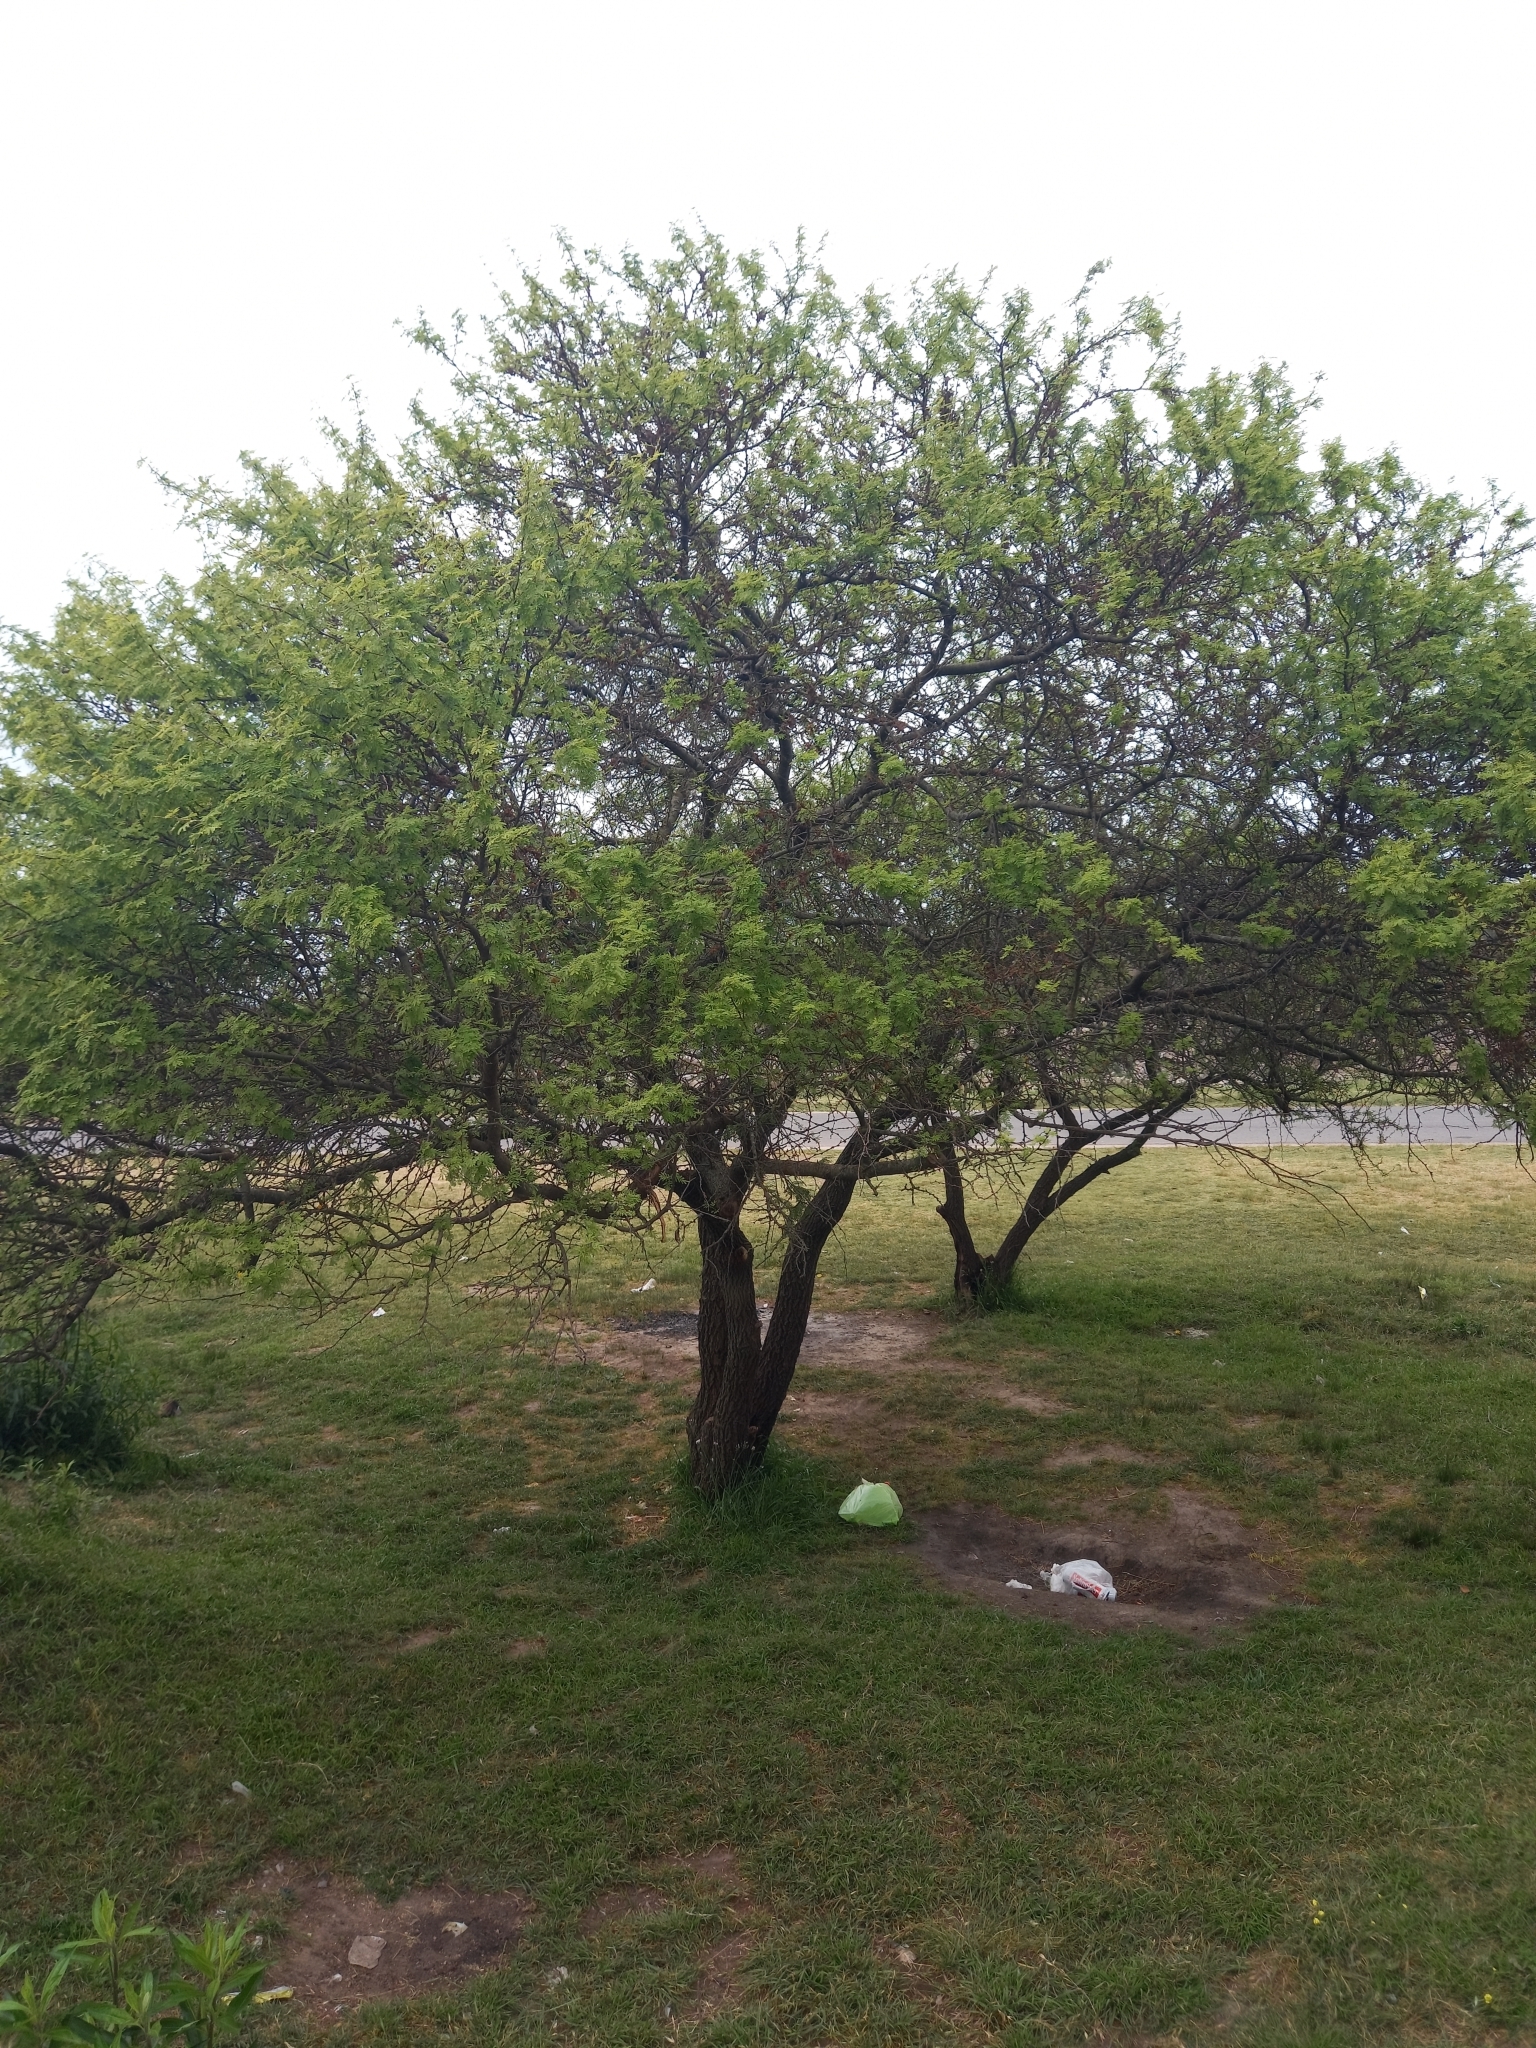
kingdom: Plantae
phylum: Tracheophyta
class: Magnoliopsida
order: Fabales
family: Fabaceae
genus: Vachellia
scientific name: Vachellia caven
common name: Roman cassie
